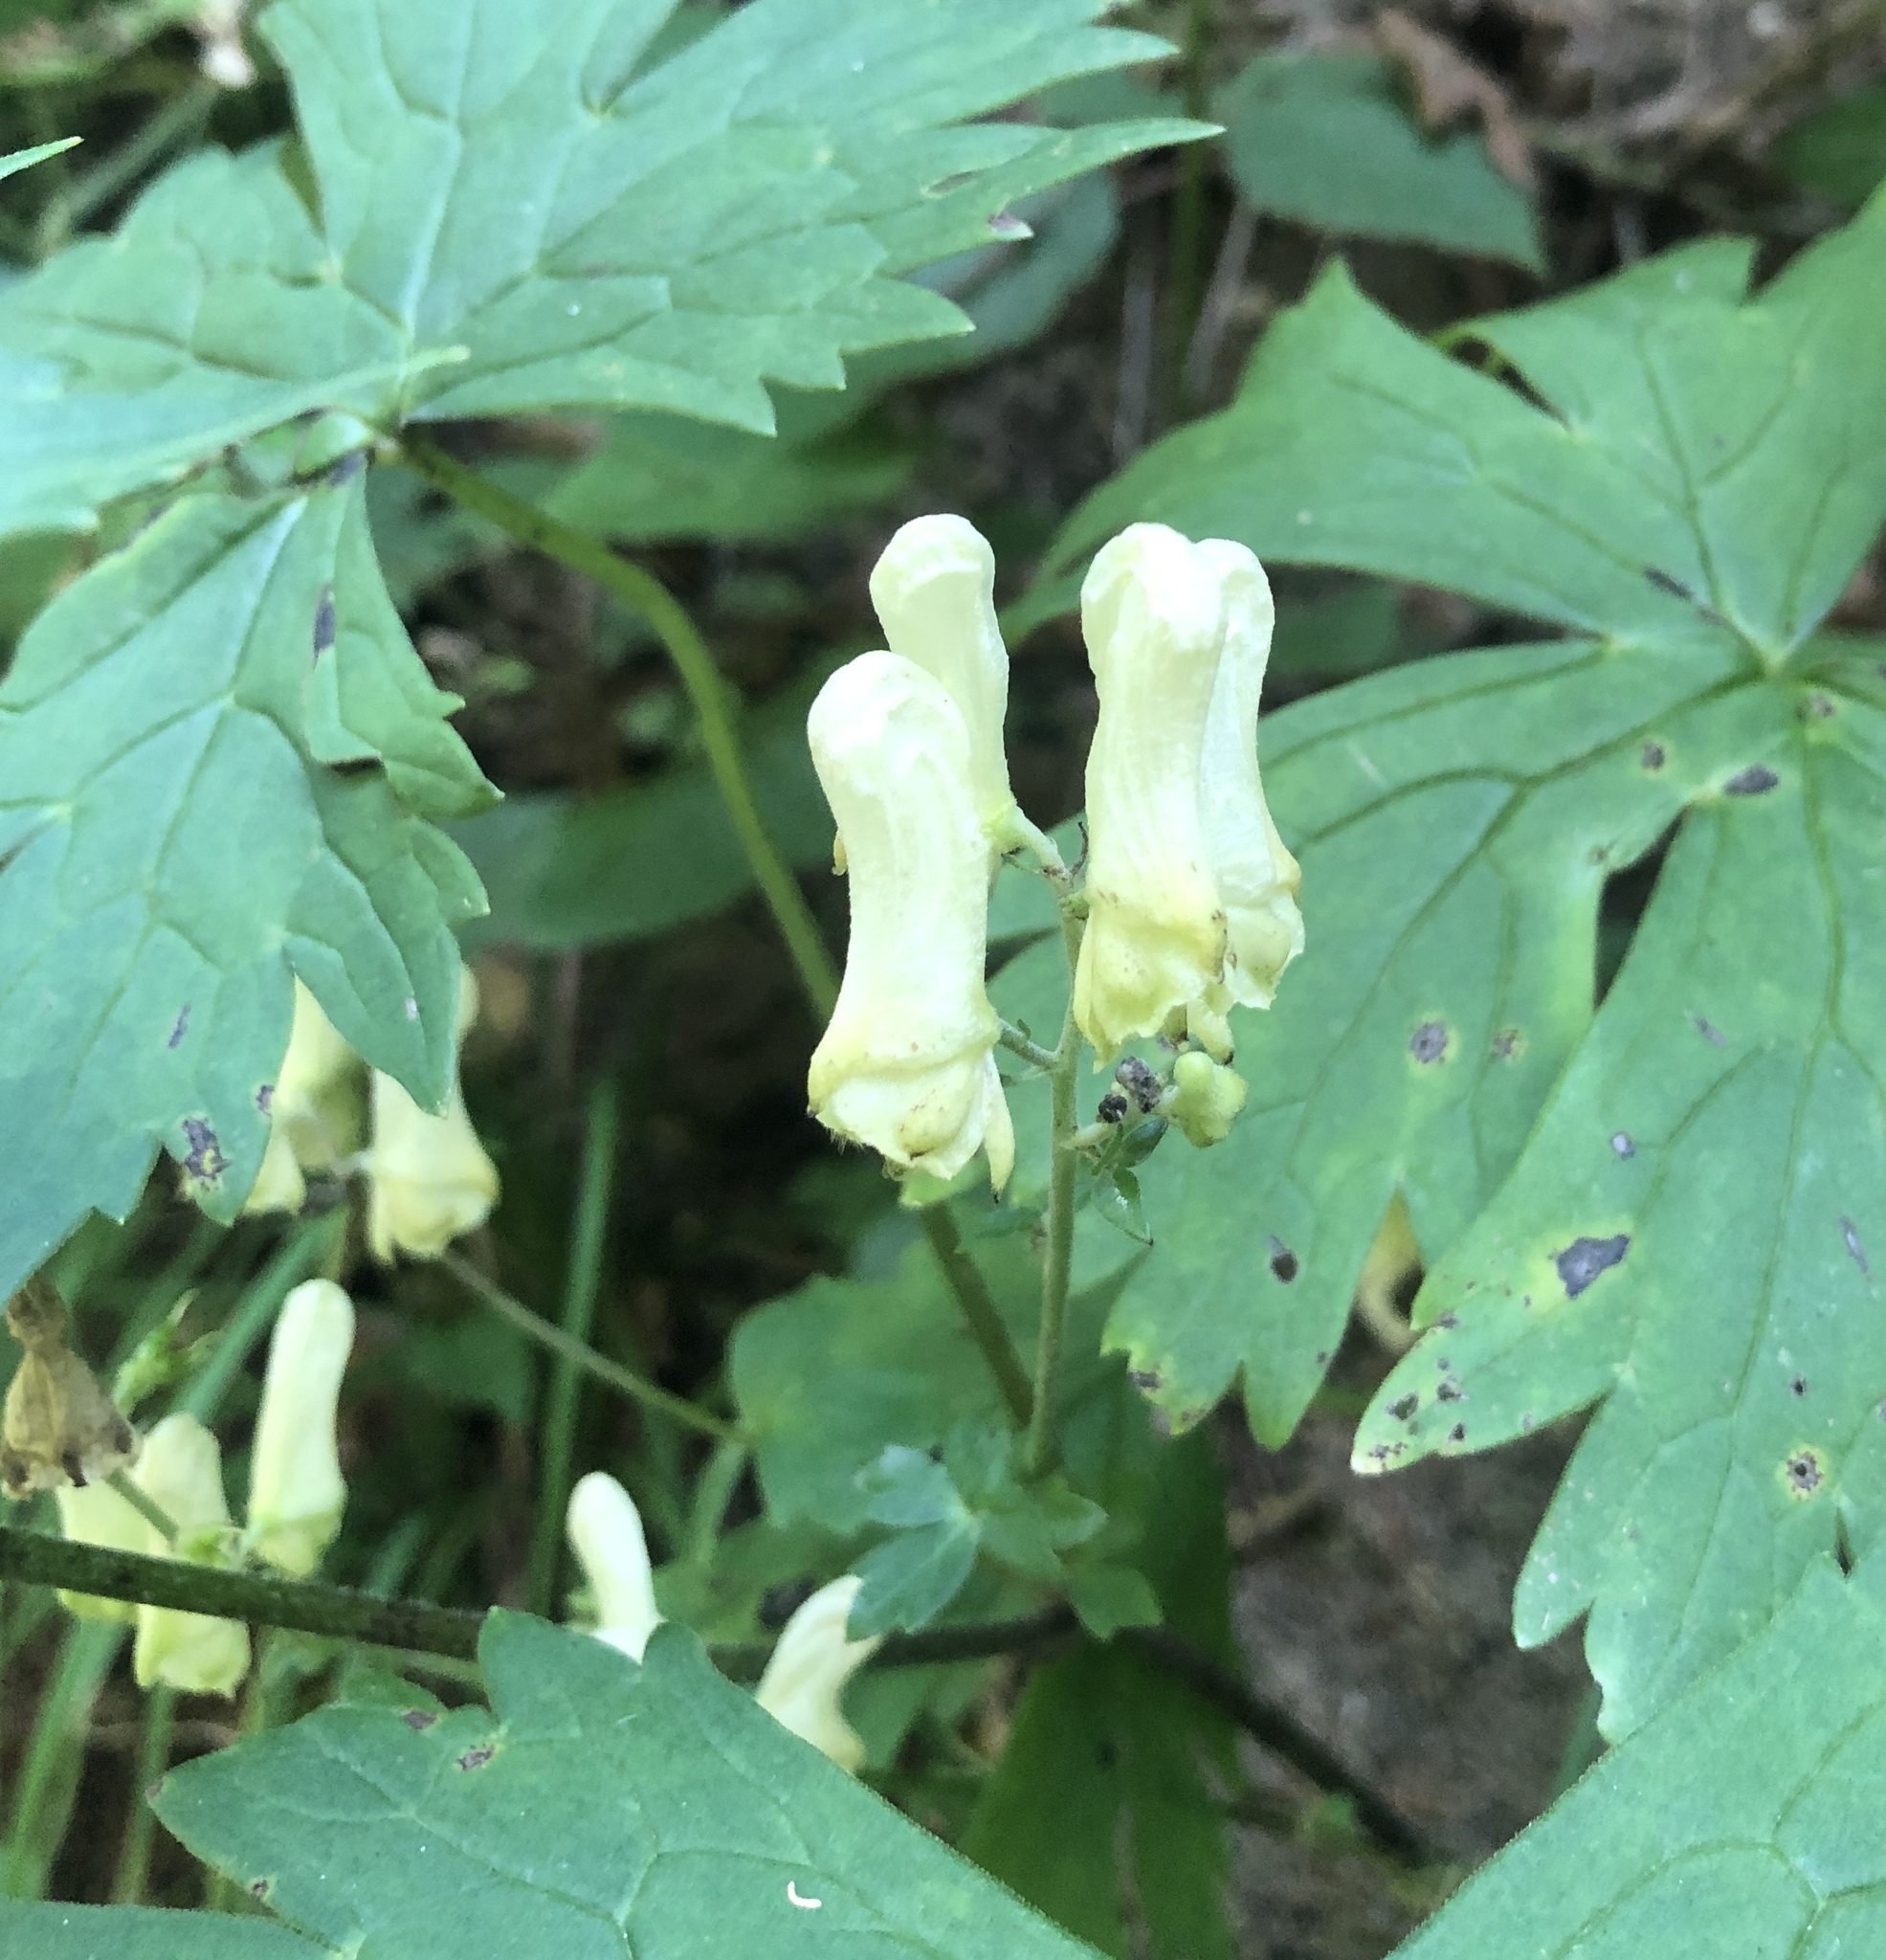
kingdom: Plantae
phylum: Tracheophyta
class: Magnoliopsida
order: Ranunculales
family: Ranunculaceae
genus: Aconitum
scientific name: Aconitum lycoctonum
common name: Wolf's-bane
